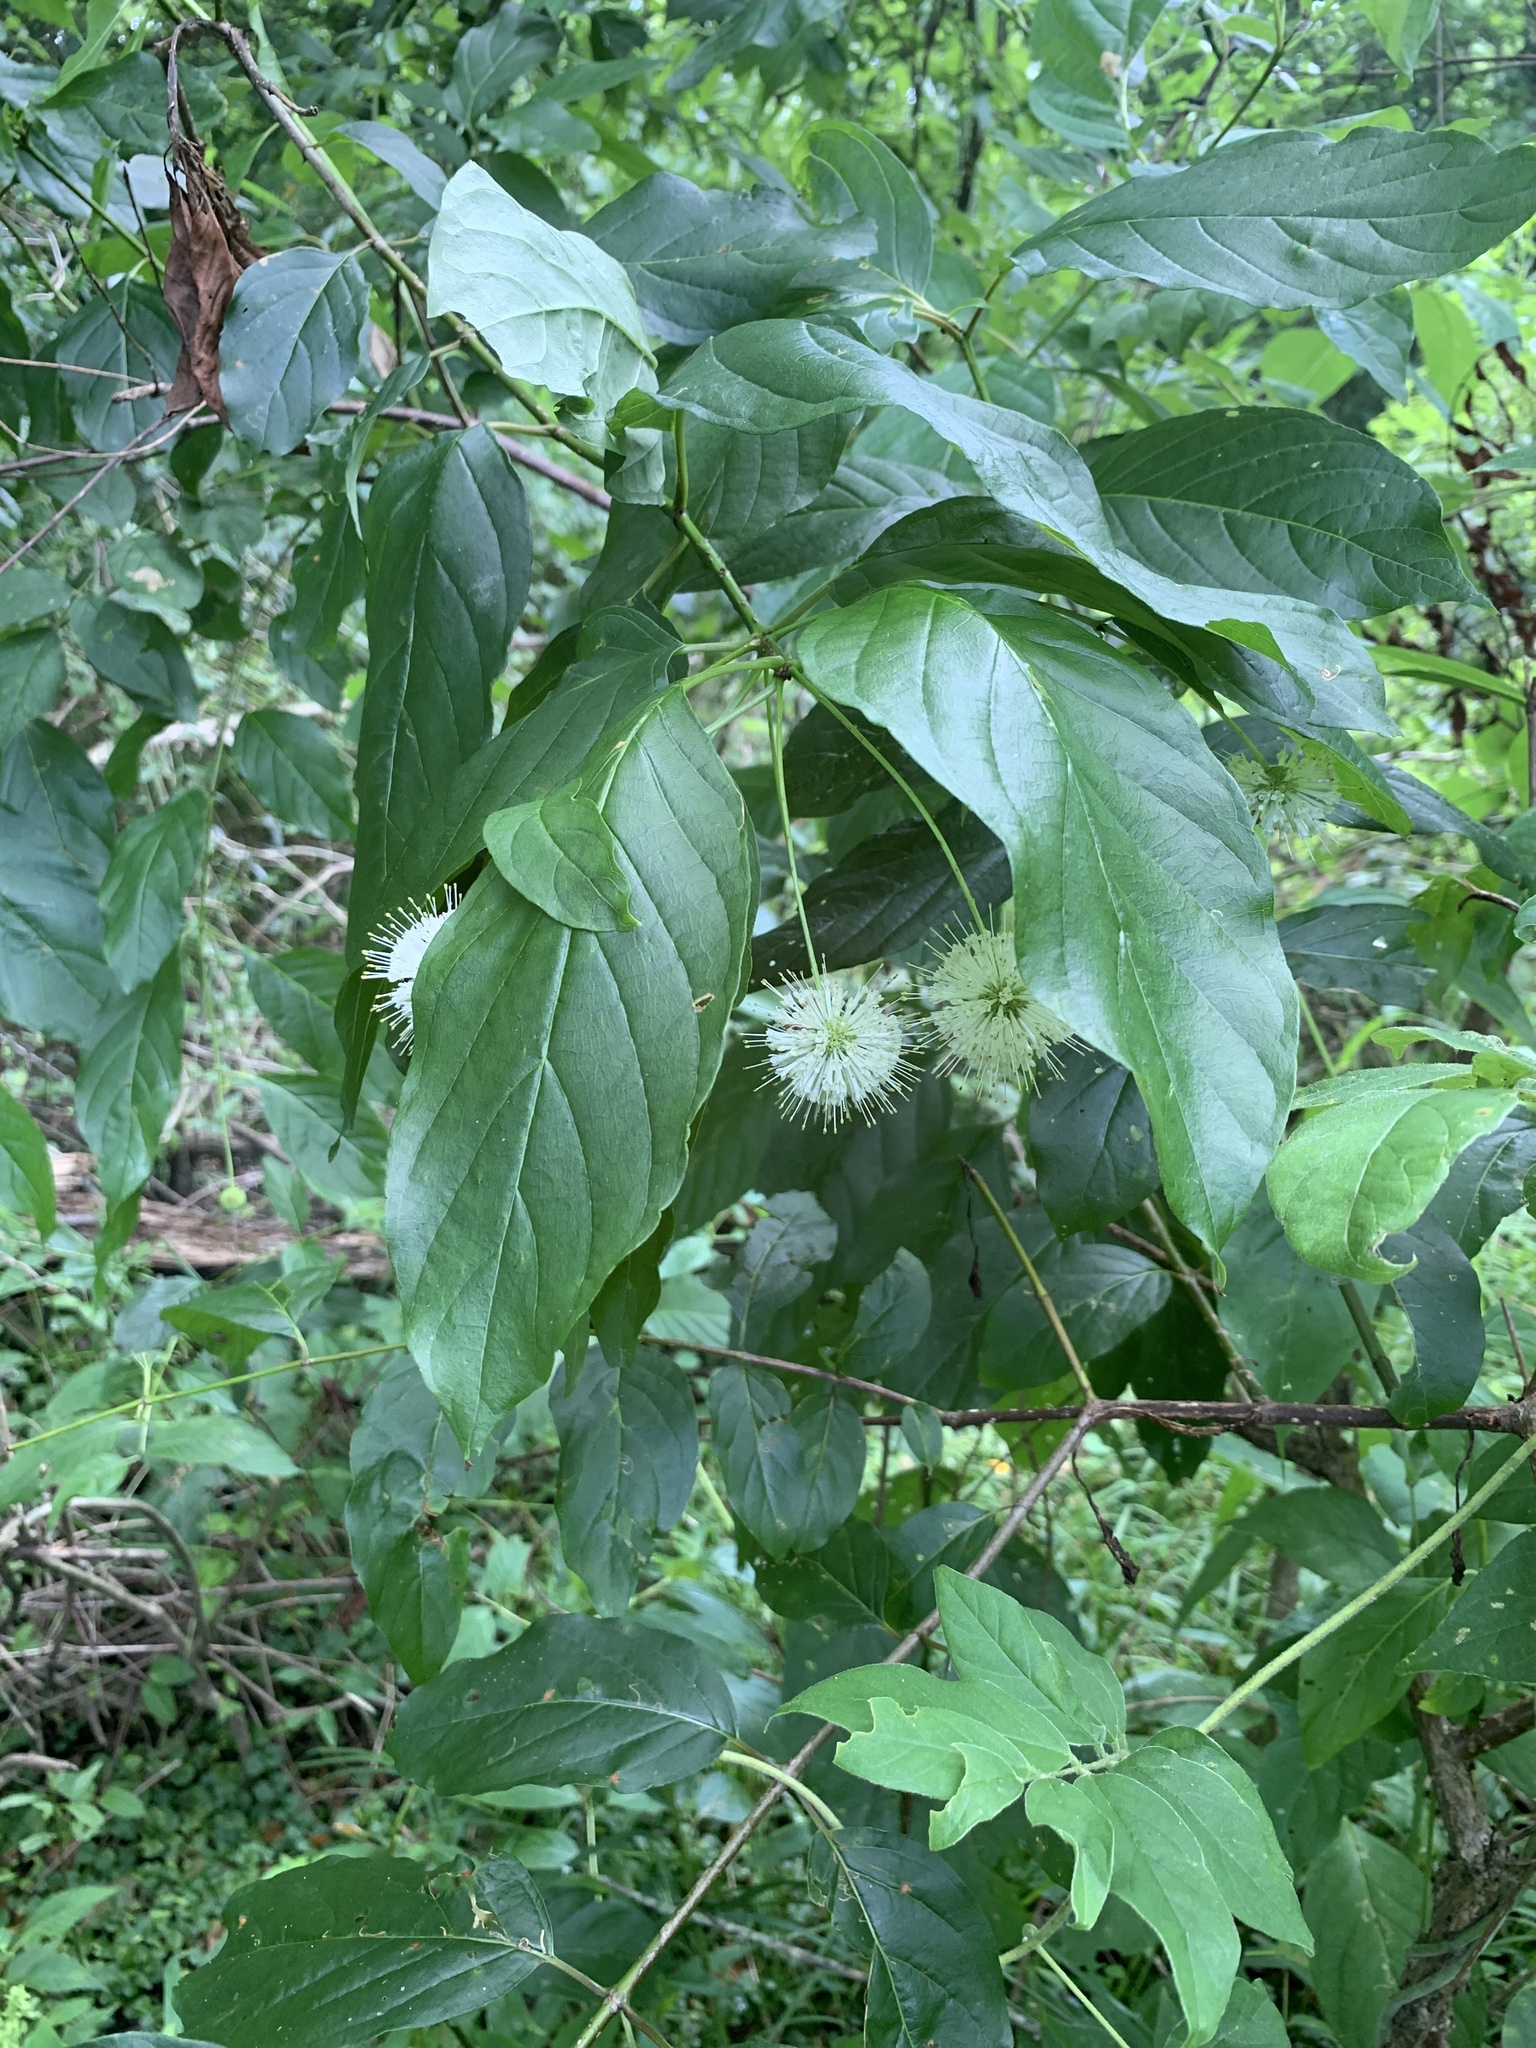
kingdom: Plantae
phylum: Tracheophyta
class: Magnoliopsida
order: Gentianales
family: Rubiaceae
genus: Cephalanthus
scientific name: Cephalanthus occidentalis
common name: Button-willow
